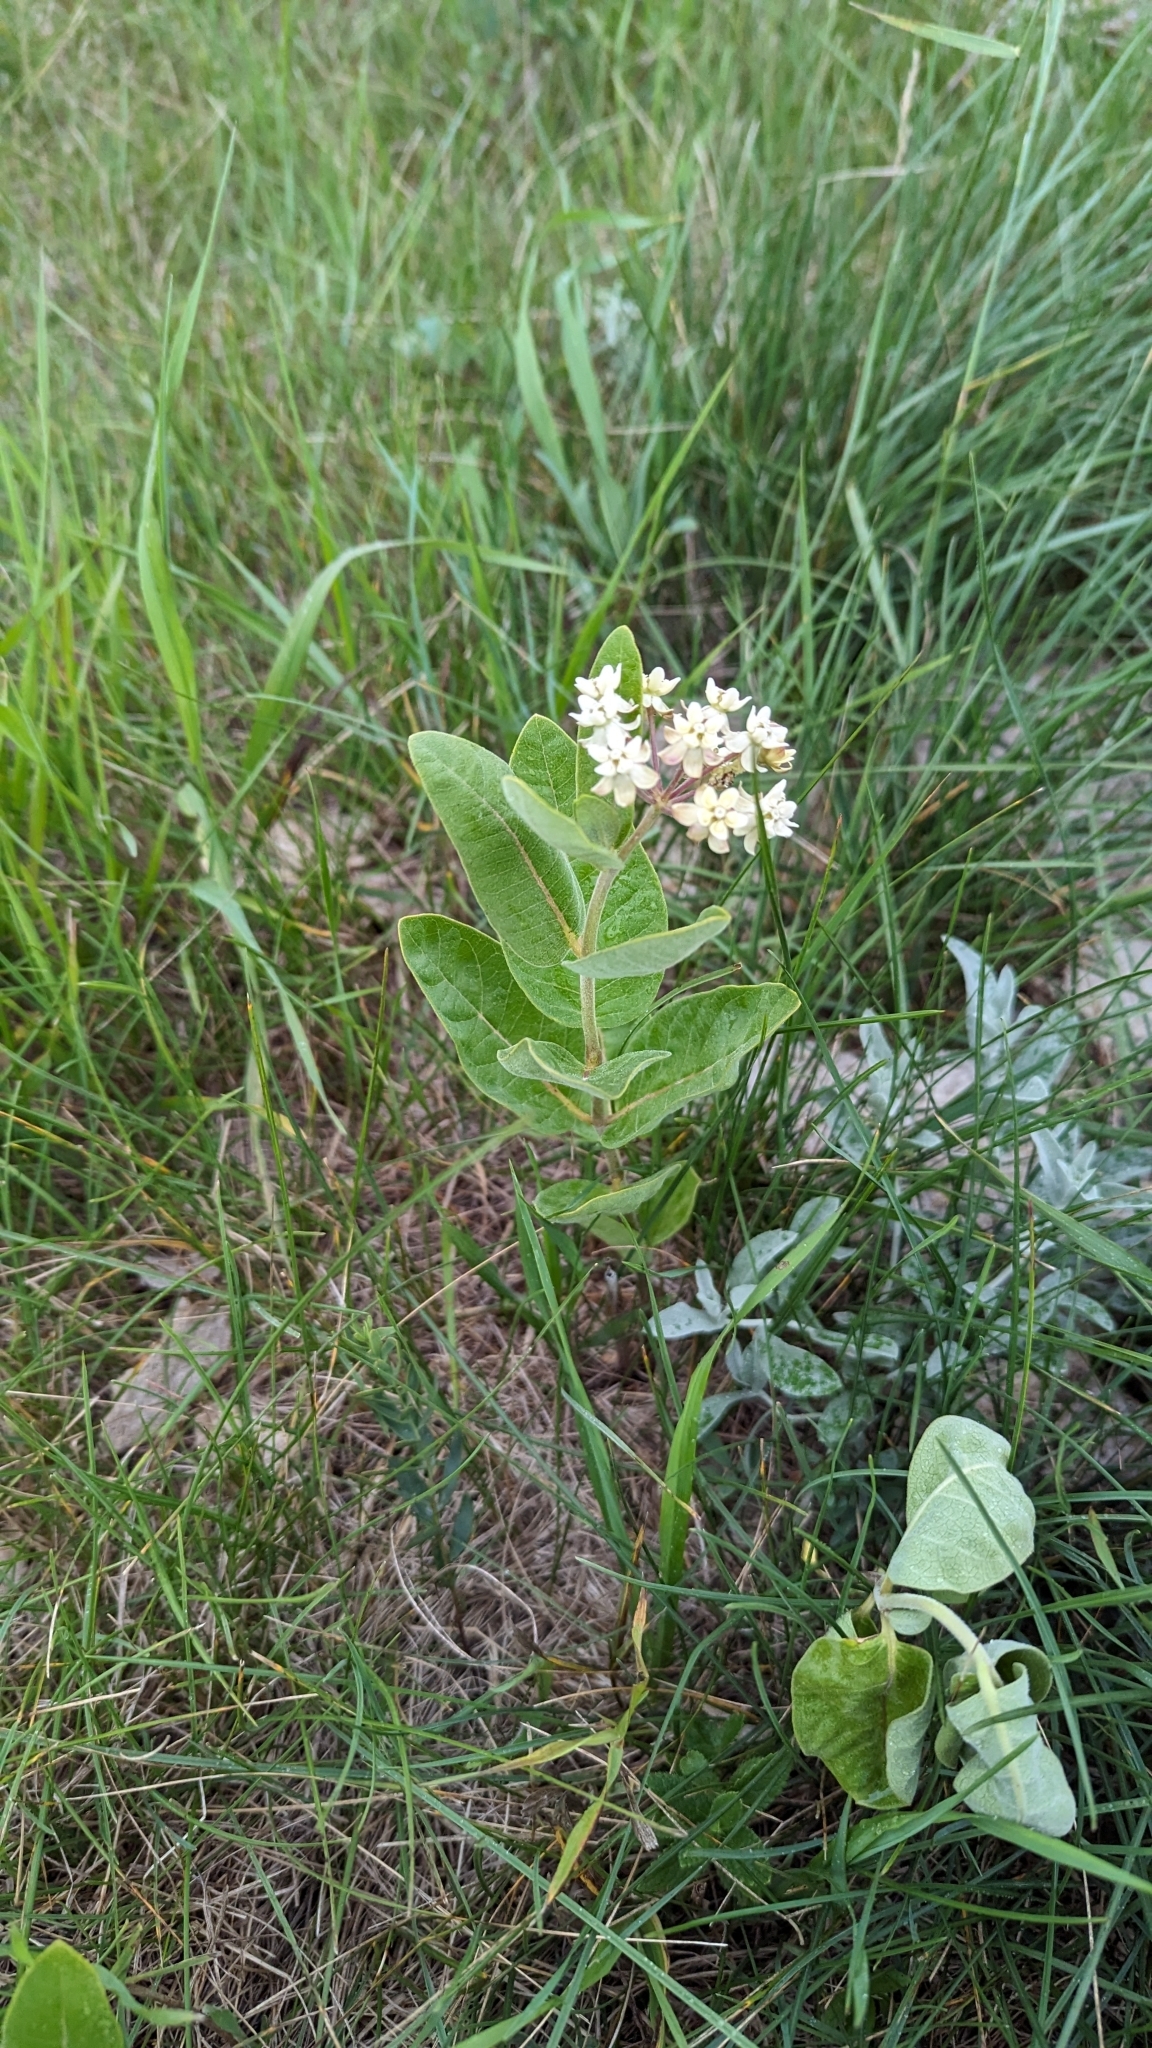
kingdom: Plantae
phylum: Tracheophyta
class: Magnoliopsida
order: Gentianales
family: Apocynaceae
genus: Asclepias
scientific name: Asclepias ovalifolia
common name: Dwarf milkweed
